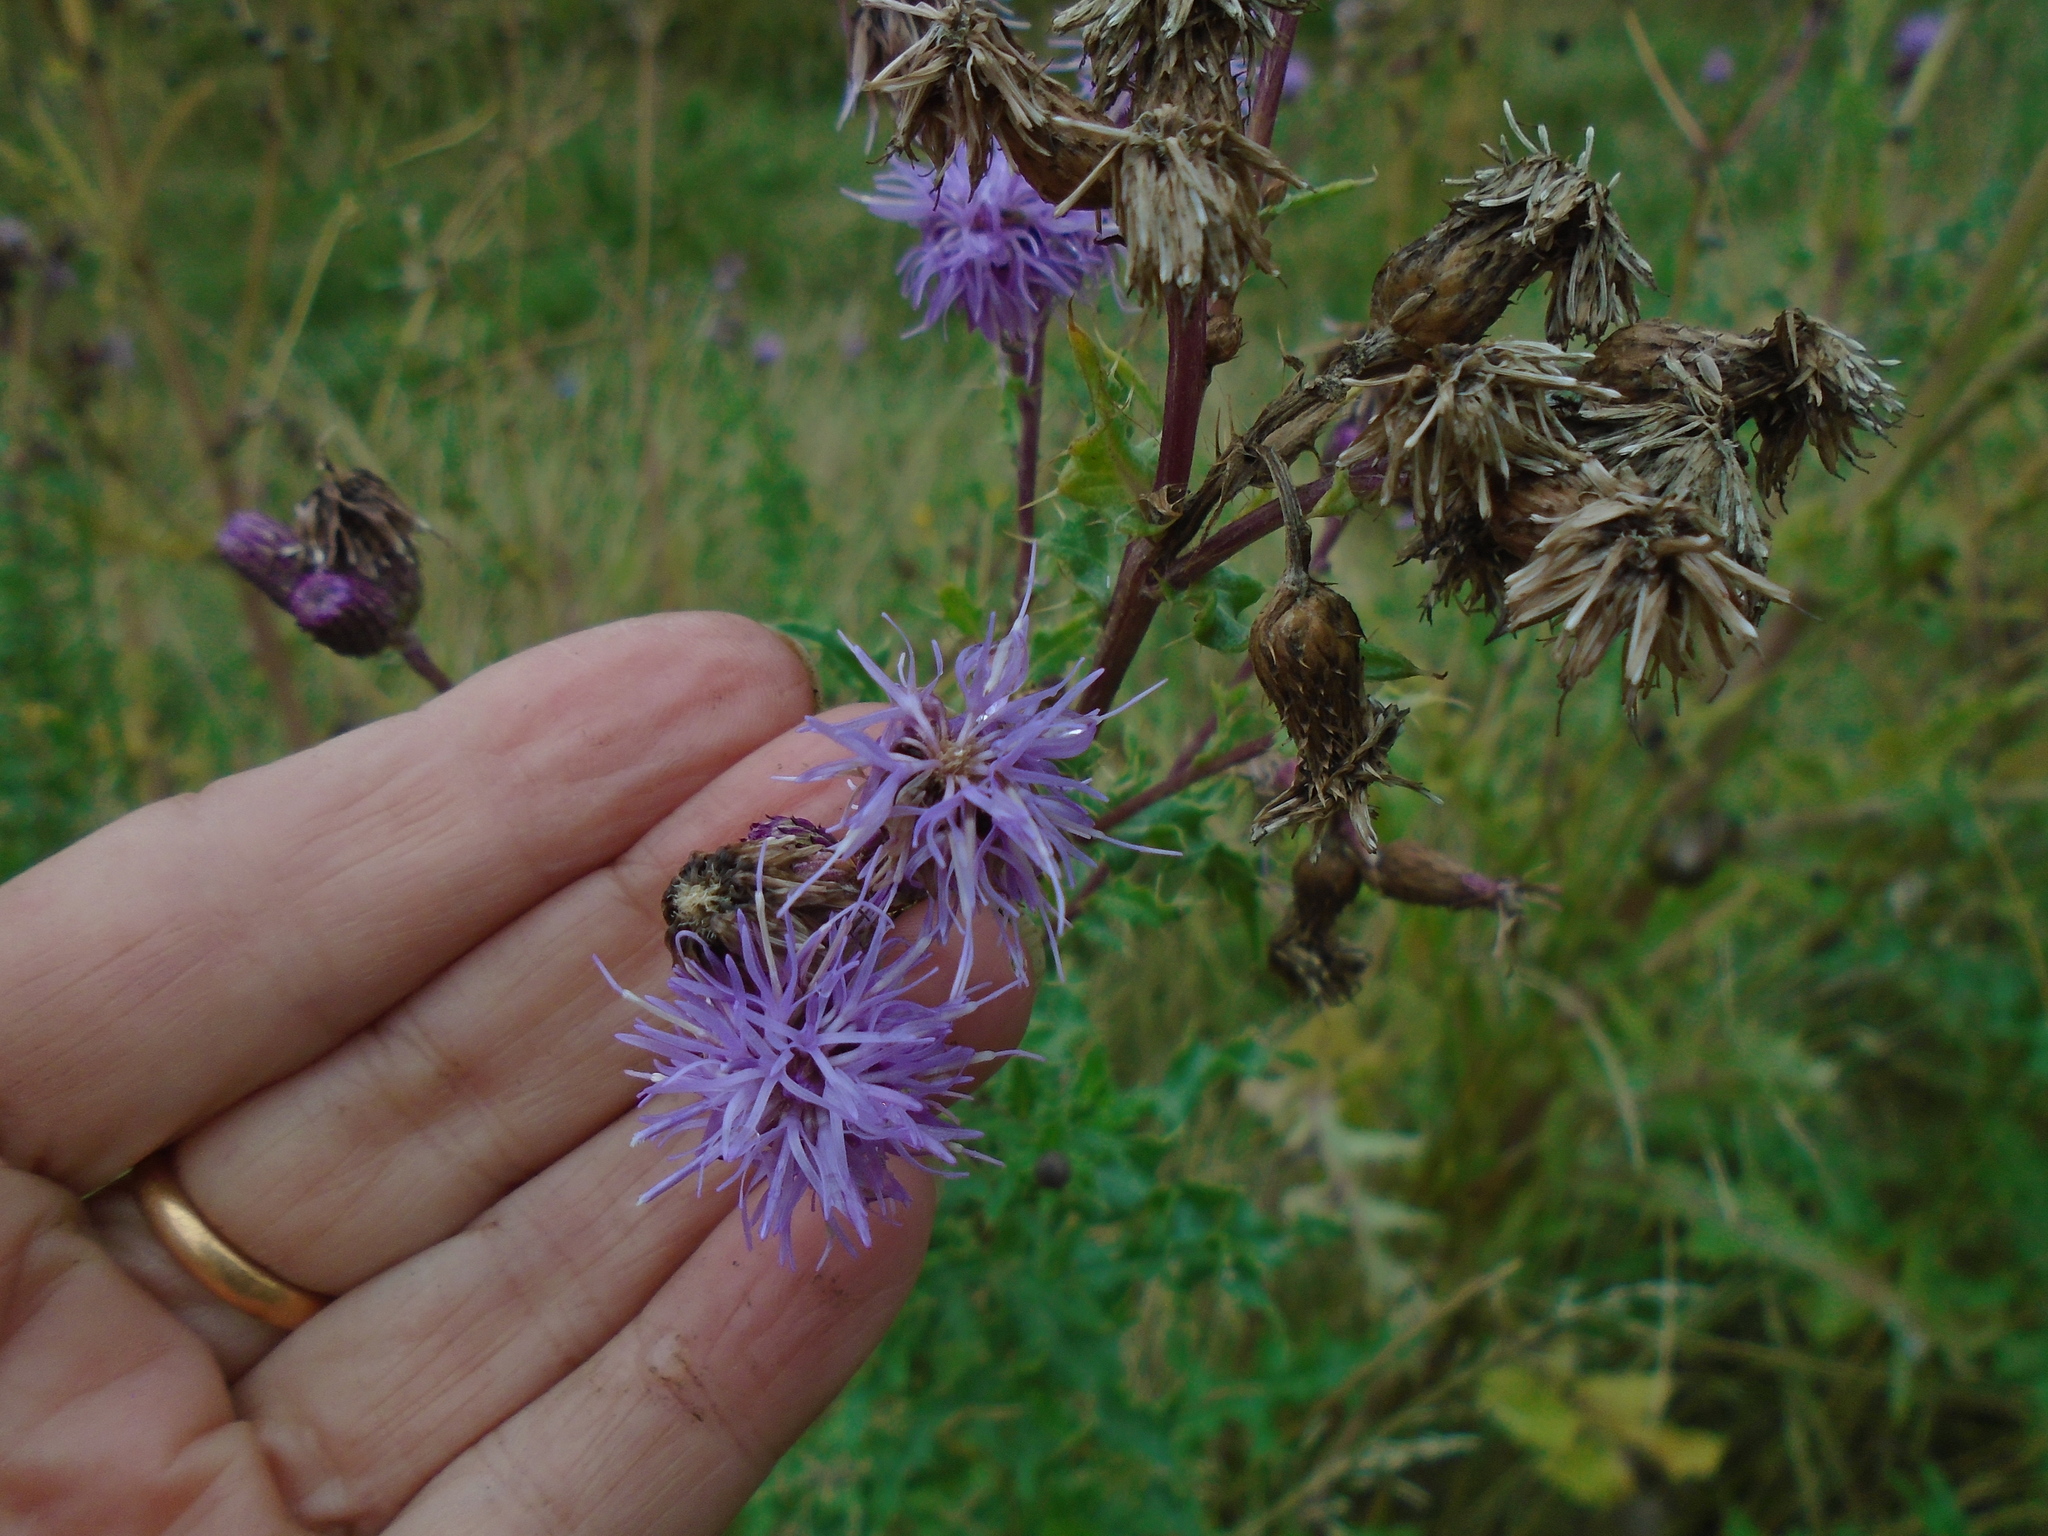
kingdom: Plantae
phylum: Tracheophyta
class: Magnoliopsida
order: Asterales
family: Asteraceae
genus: Cirsium
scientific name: Cirsium arvense
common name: Creeping thistle
